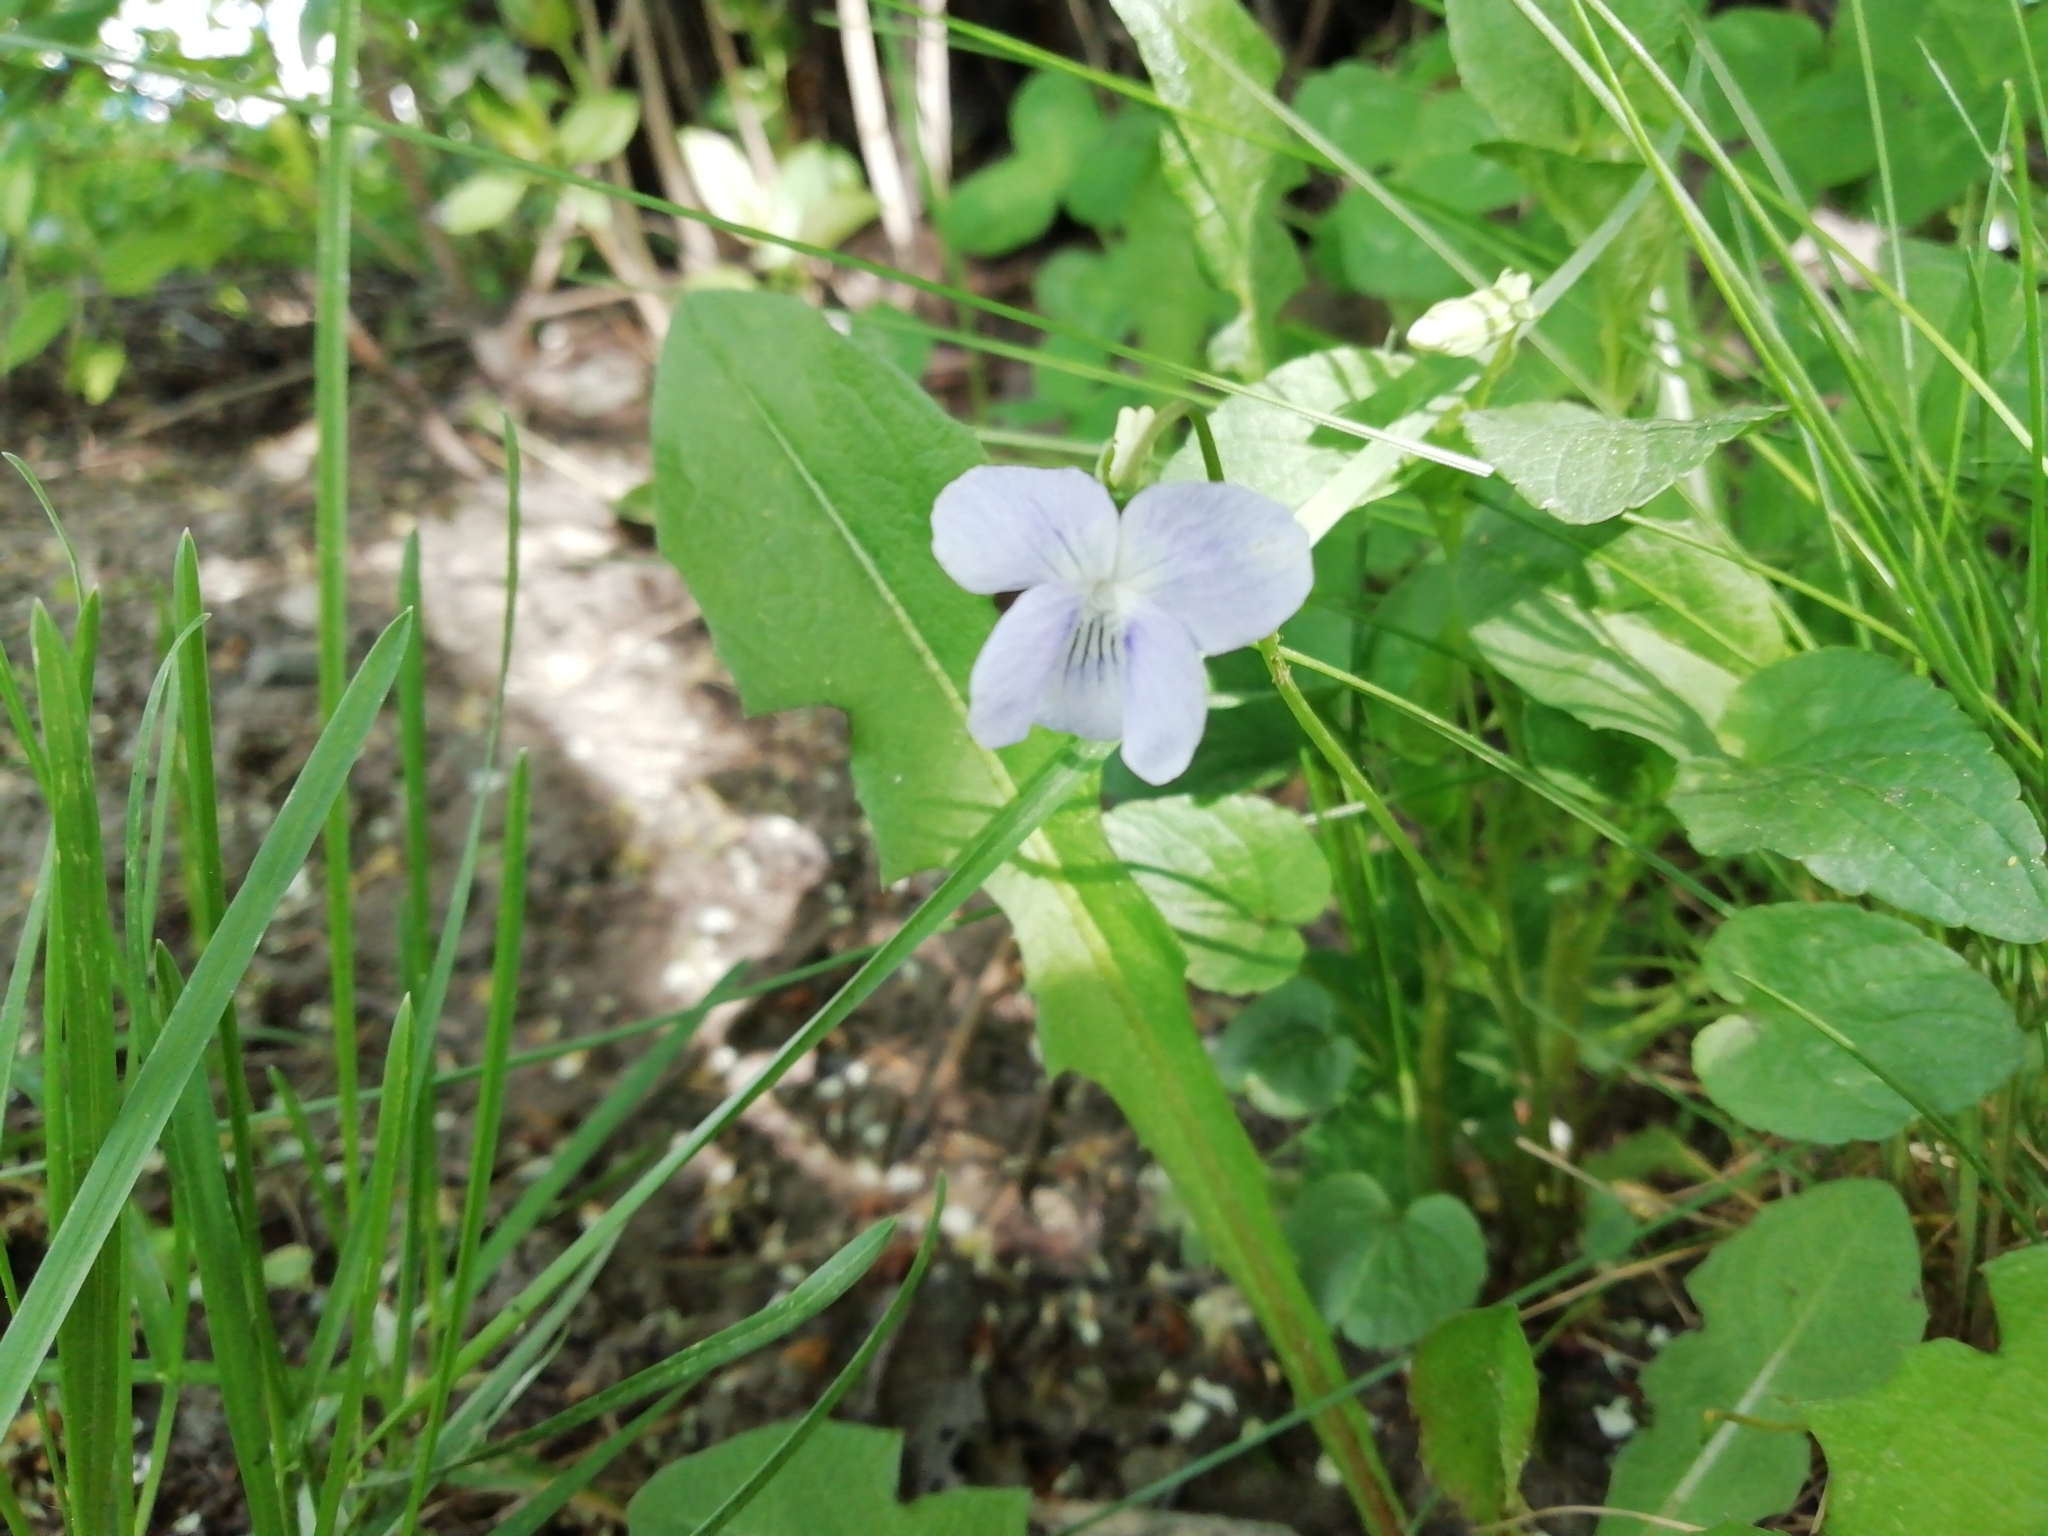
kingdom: Plantae
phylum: Tracheophyta
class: Magnoliopsida
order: Malpighiales
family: Violaceae
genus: Viola
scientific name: Viola
